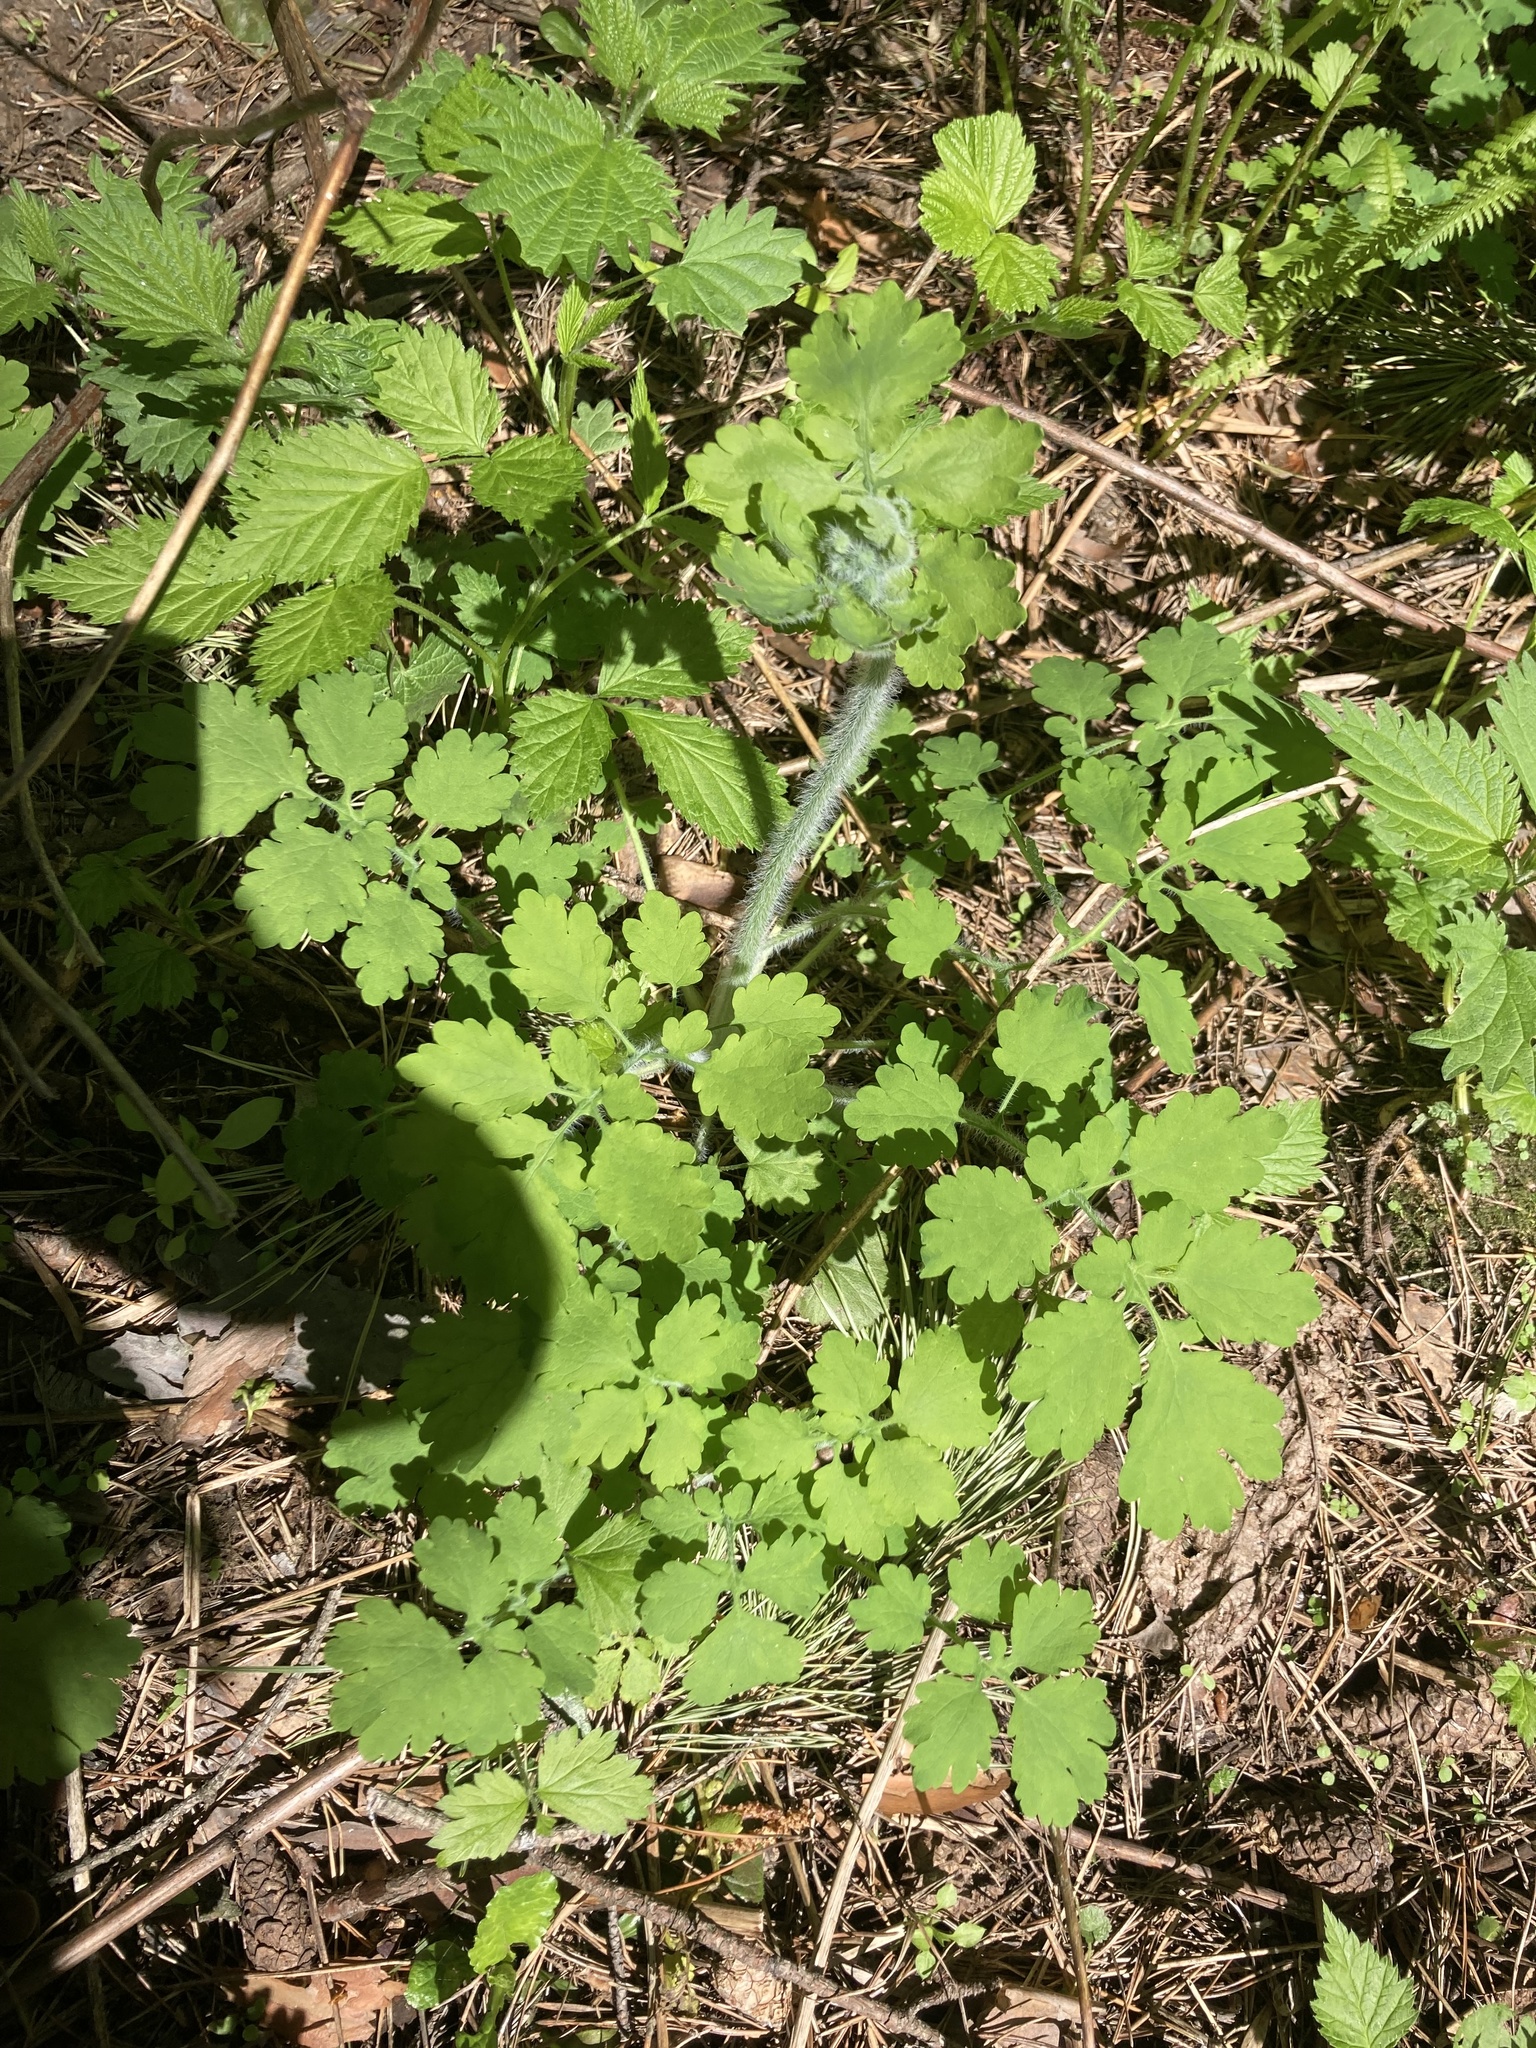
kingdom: Plantae
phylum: Tracheophyta
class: Magnoliopsida
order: Ranunculales
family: Papaveraceae
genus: Chelidonium
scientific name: Chelidonium majus
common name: Greater celandine
